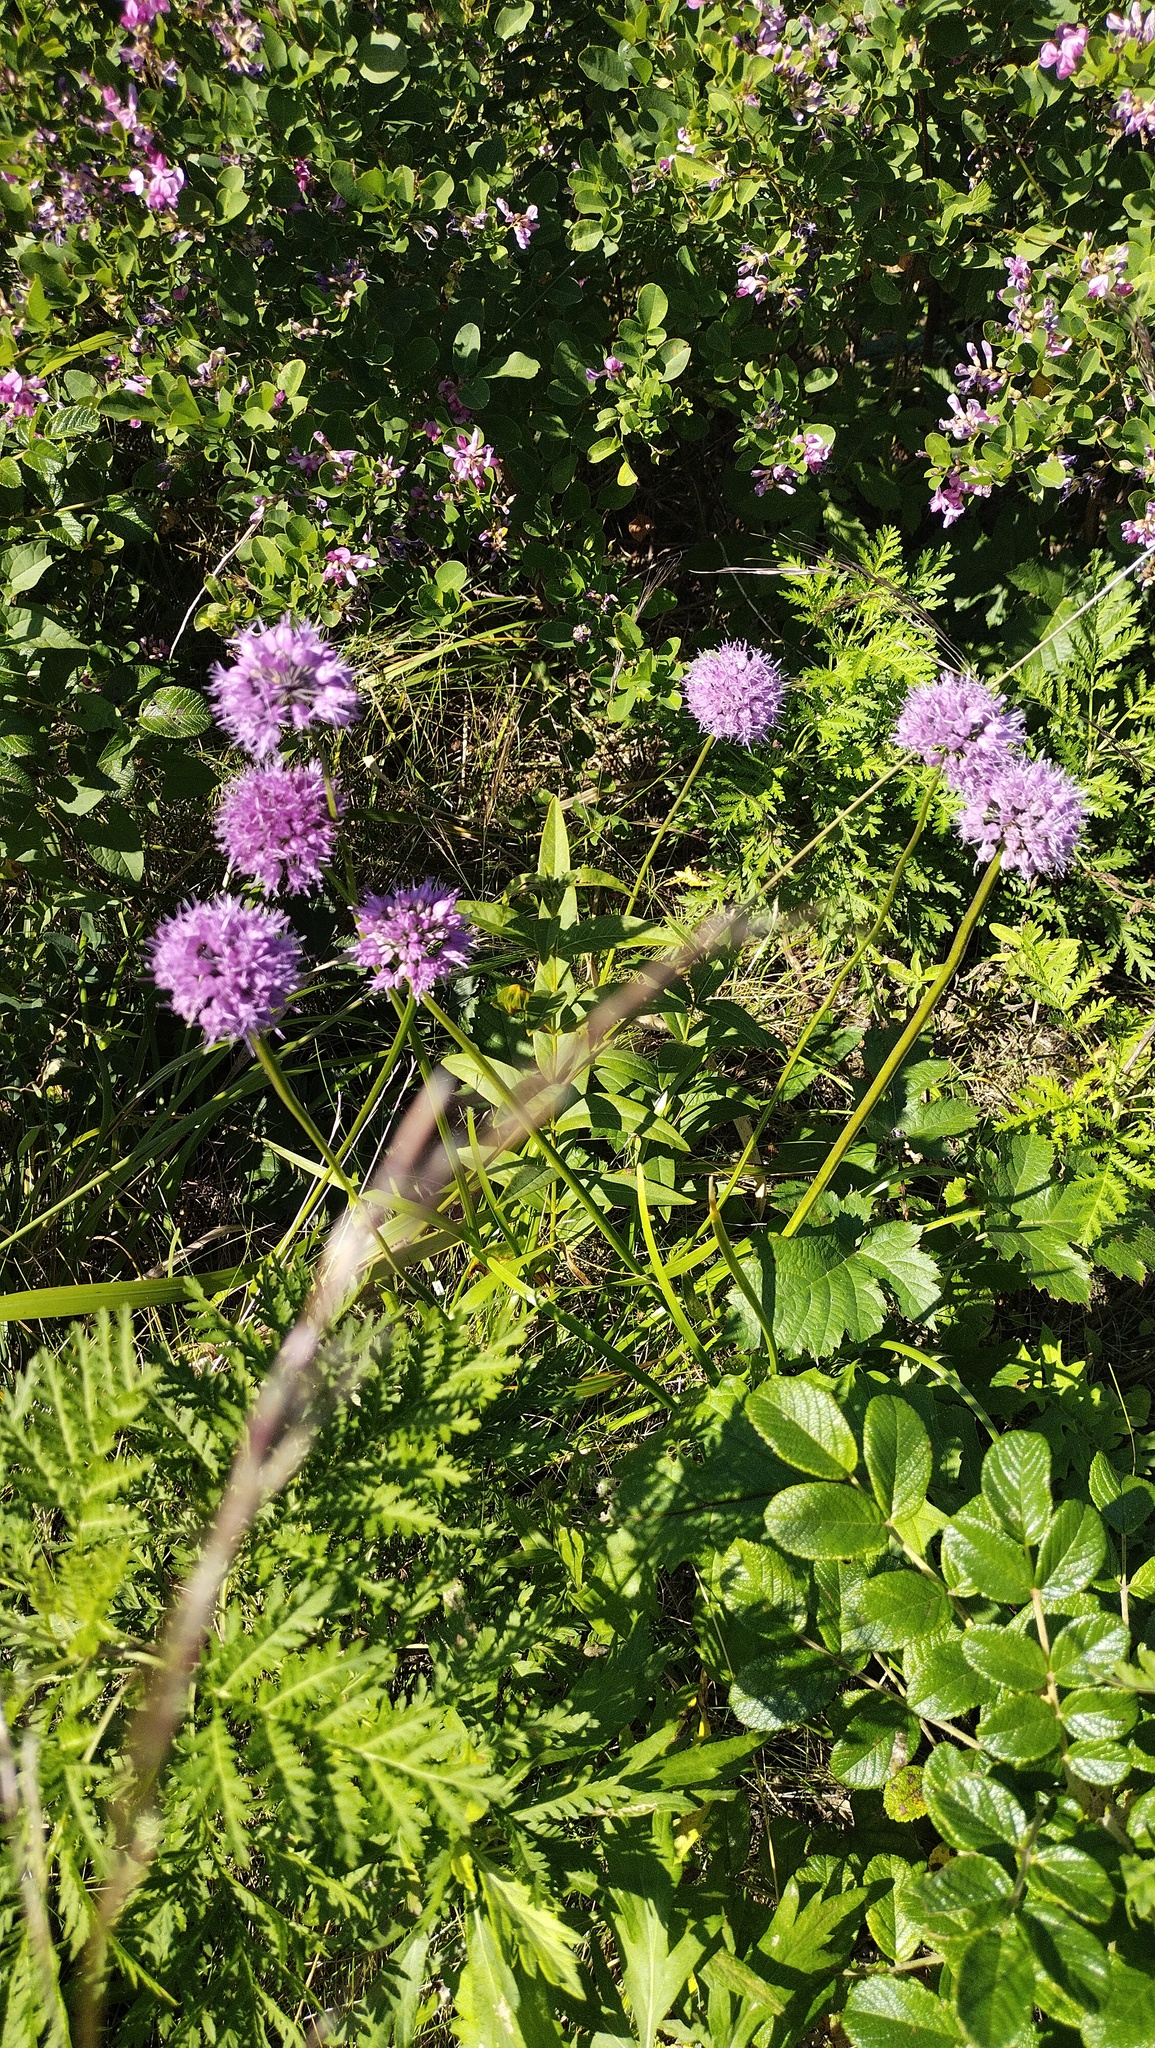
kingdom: Plantae
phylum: Tracheophyta
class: Liliopsida
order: Asparagales
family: Amaryllidaceae
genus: Allium
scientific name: Allium spirale
